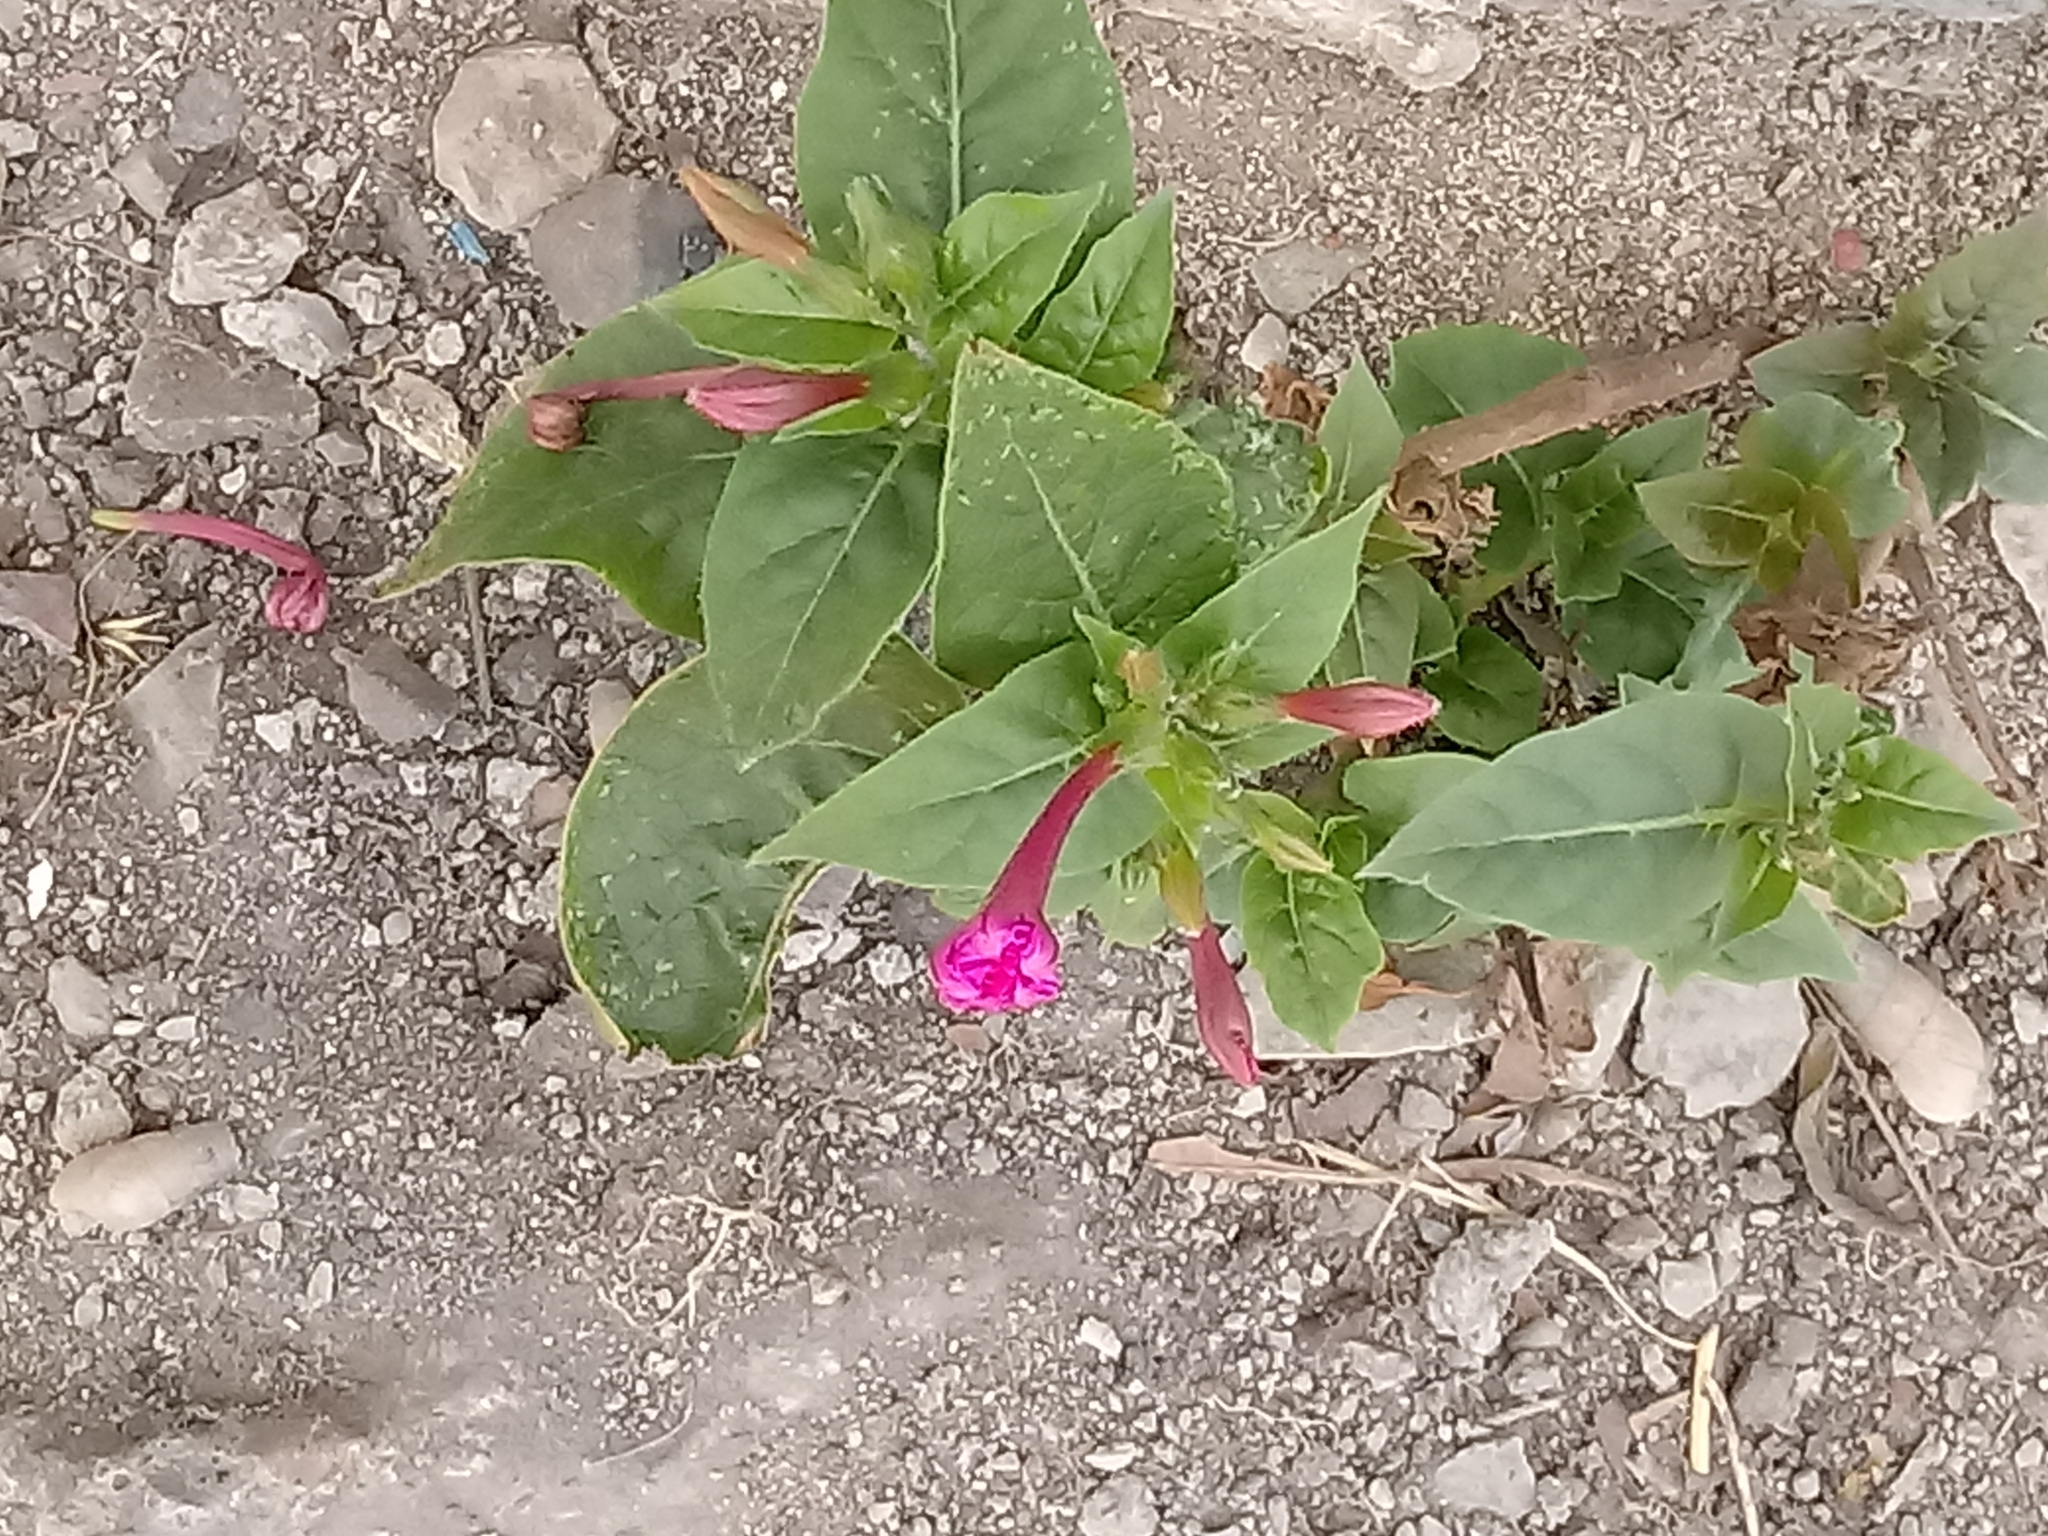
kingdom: Plantae
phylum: Tracheophyta
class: Magnoliopsida
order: Caryophyllales
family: Nyctaginaceae
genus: Mirabilis
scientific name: Mirabilis jalapa
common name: Marvel-of-peru
